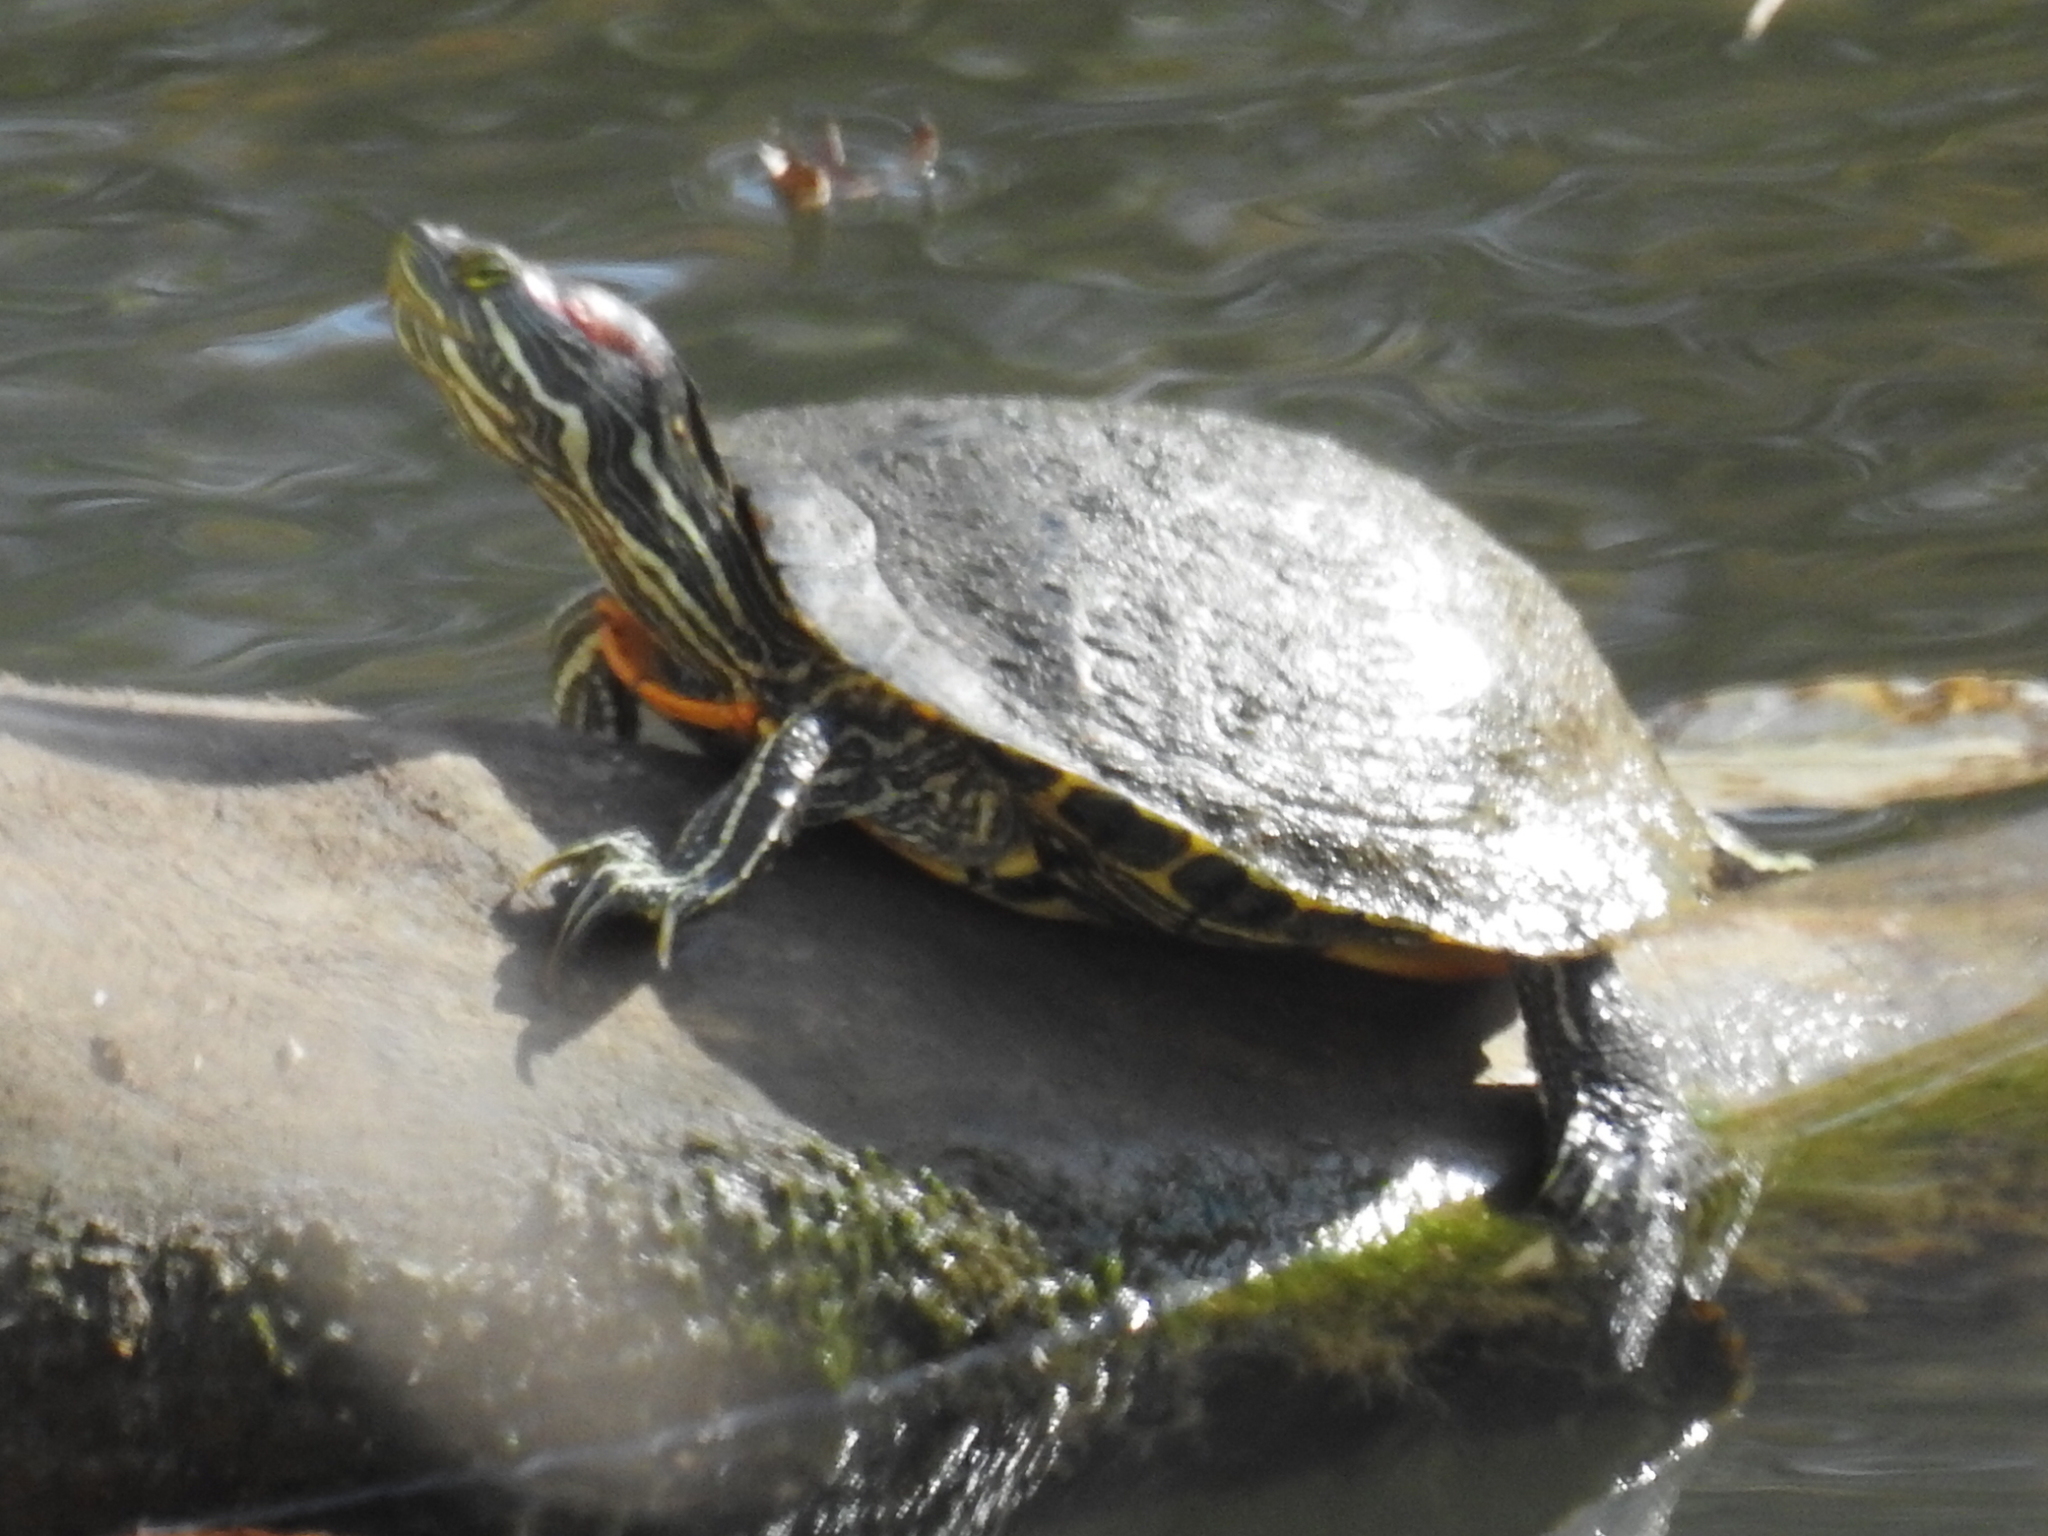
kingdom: Animalia
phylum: Chordata
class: Testudines
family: Emydidae
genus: Trachemys
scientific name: Trachemys scripta
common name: Slider
